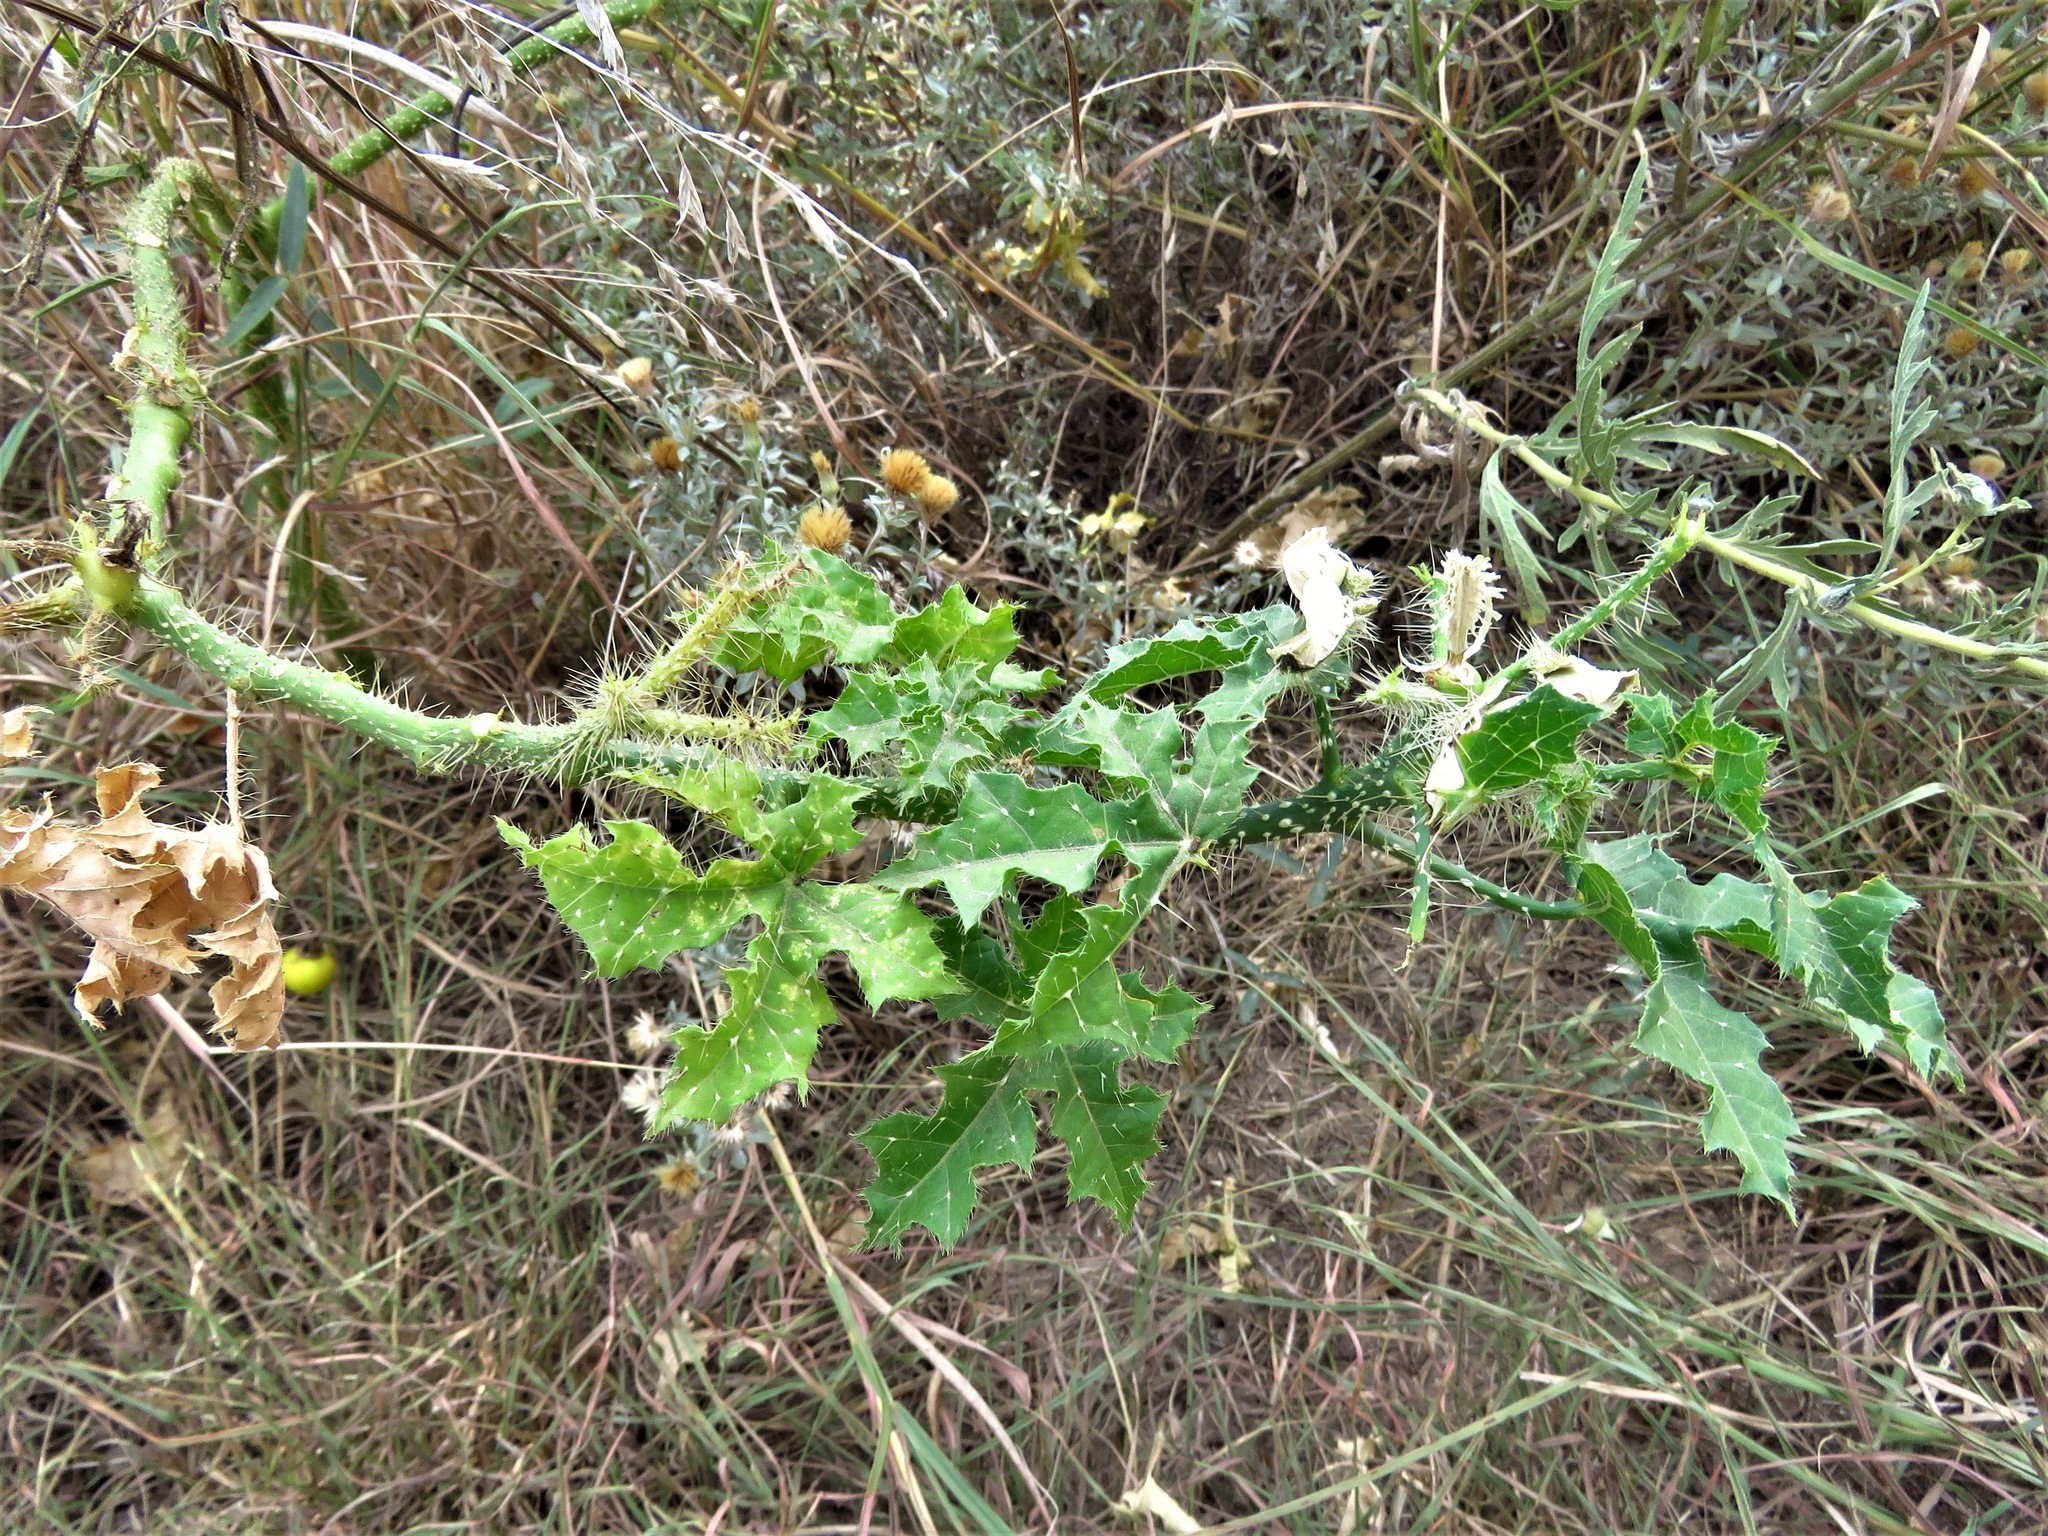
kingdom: Plantae
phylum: Tracheophyta
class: Magnoliopsida
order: Malpighiales
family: Euphorbiaceae
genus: Cnidoscolus
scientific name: Cnidoscolus texanus
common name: Texas bull-nettle
